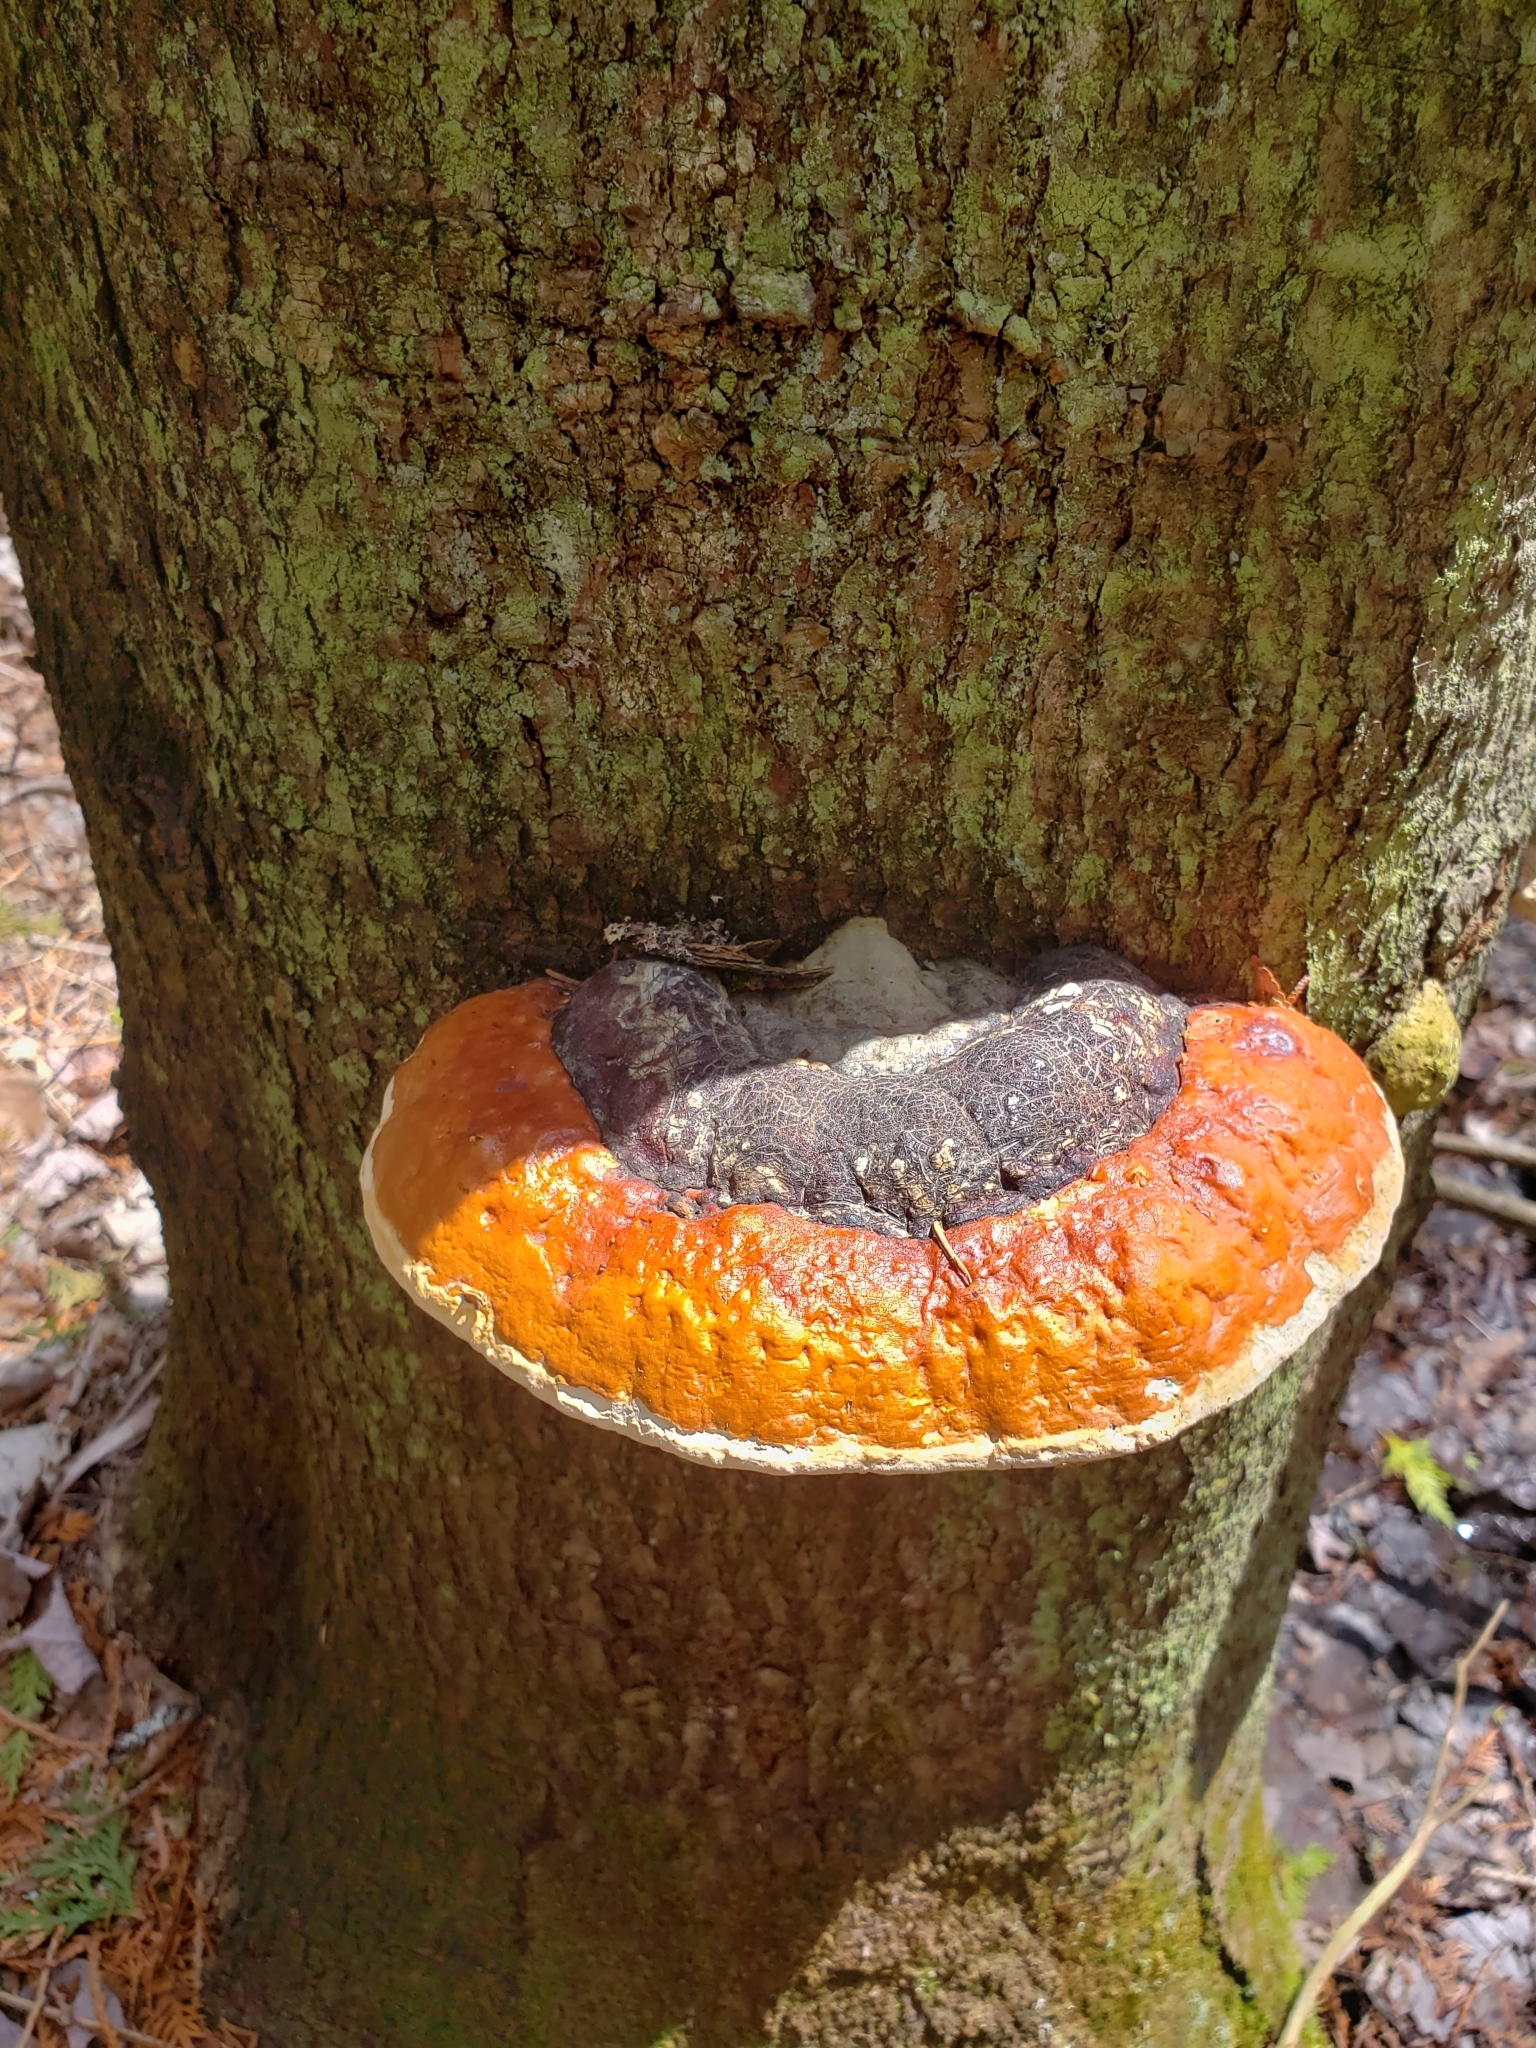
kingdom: Fungi
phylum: Basidiomycota
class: Agaricomycetes
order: Polyporales
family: Fomitopsidaceae
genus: Fomitopsis
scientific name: Fomitopsis mounceae
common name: Northern red belt
